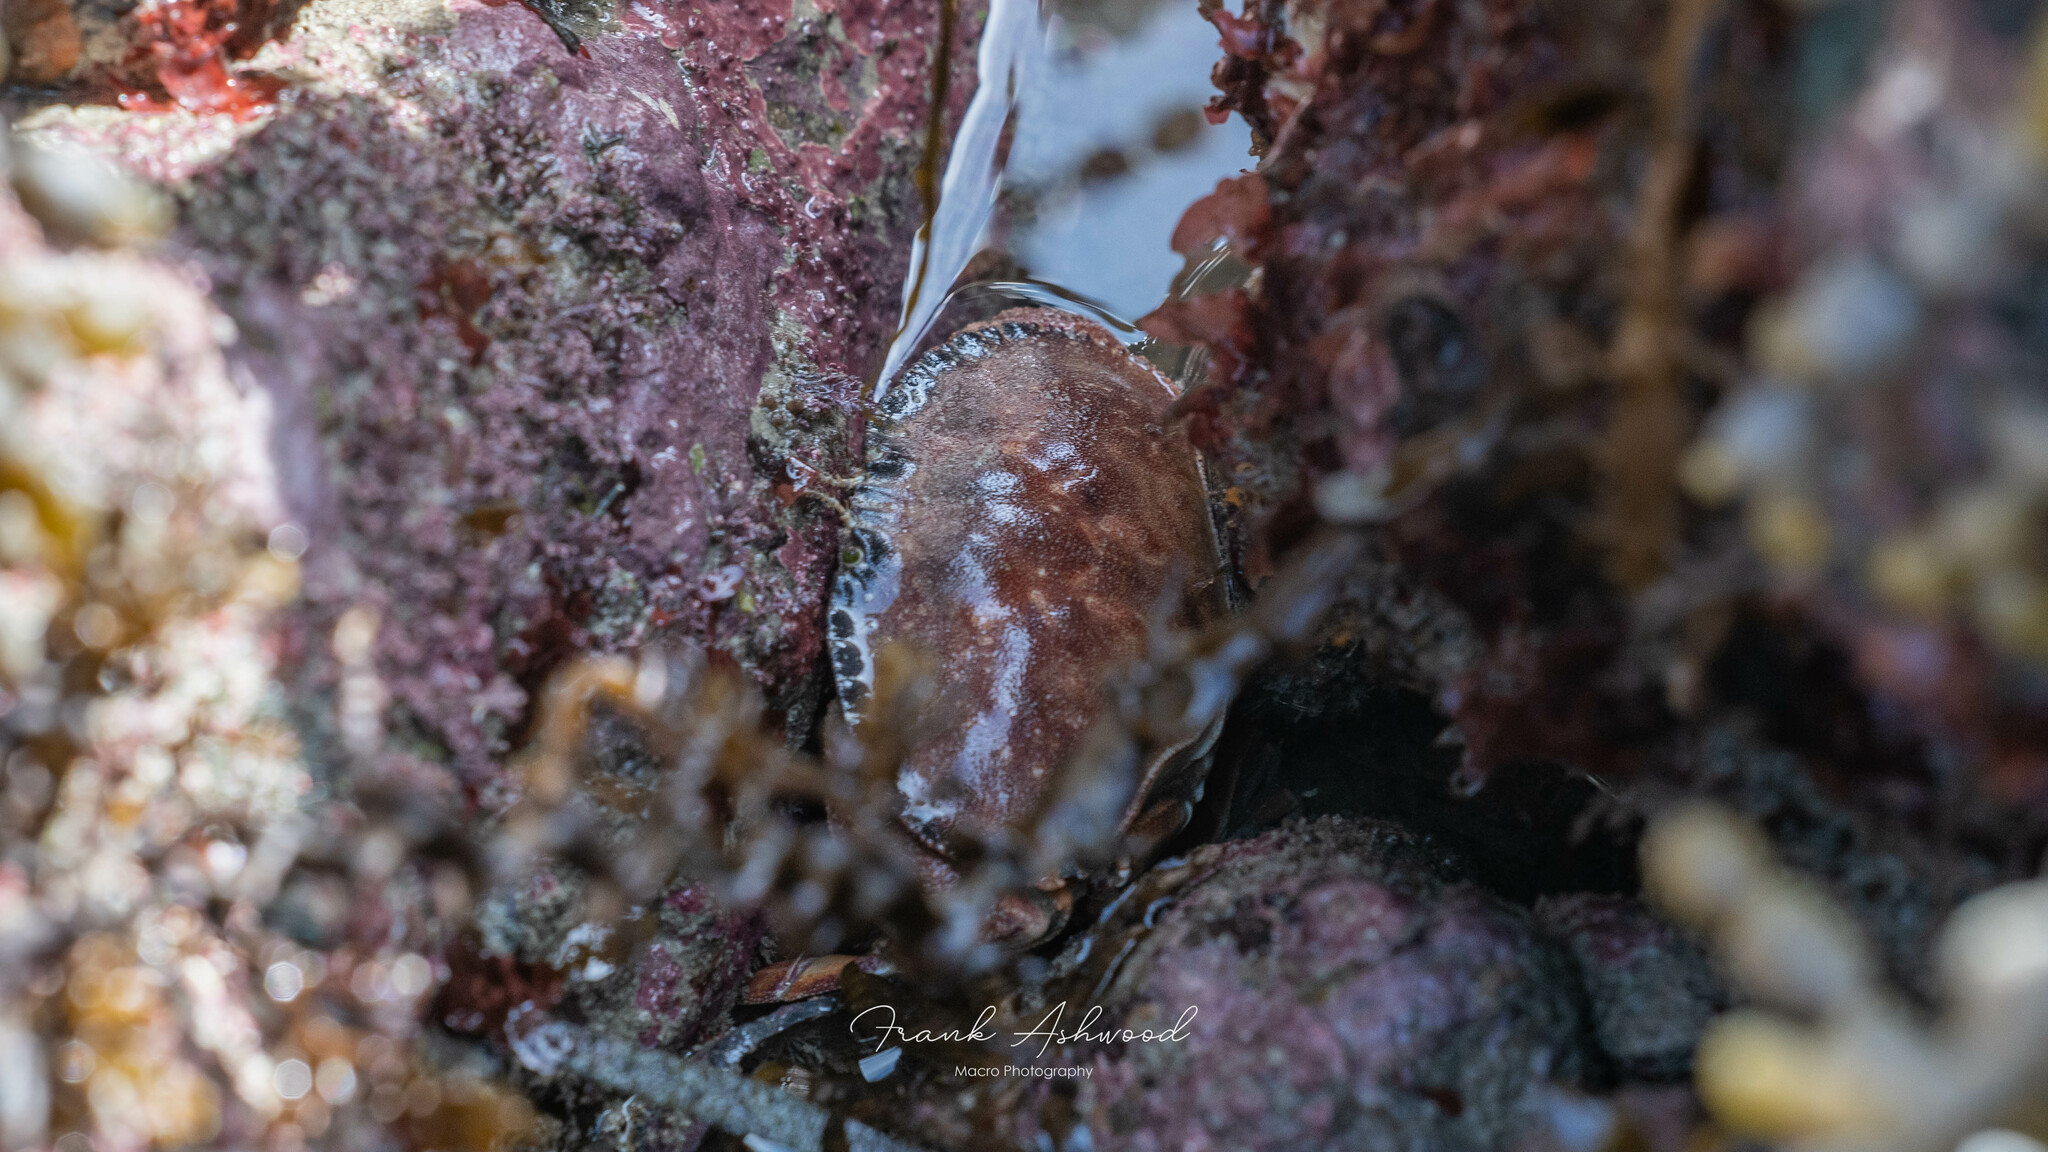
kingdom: Animalia
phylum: Arthropoda
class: Malacostraca
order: Decapoda
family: Cancridae
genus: Metacarcinus
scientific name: Metacarcinus novaezelandiae
